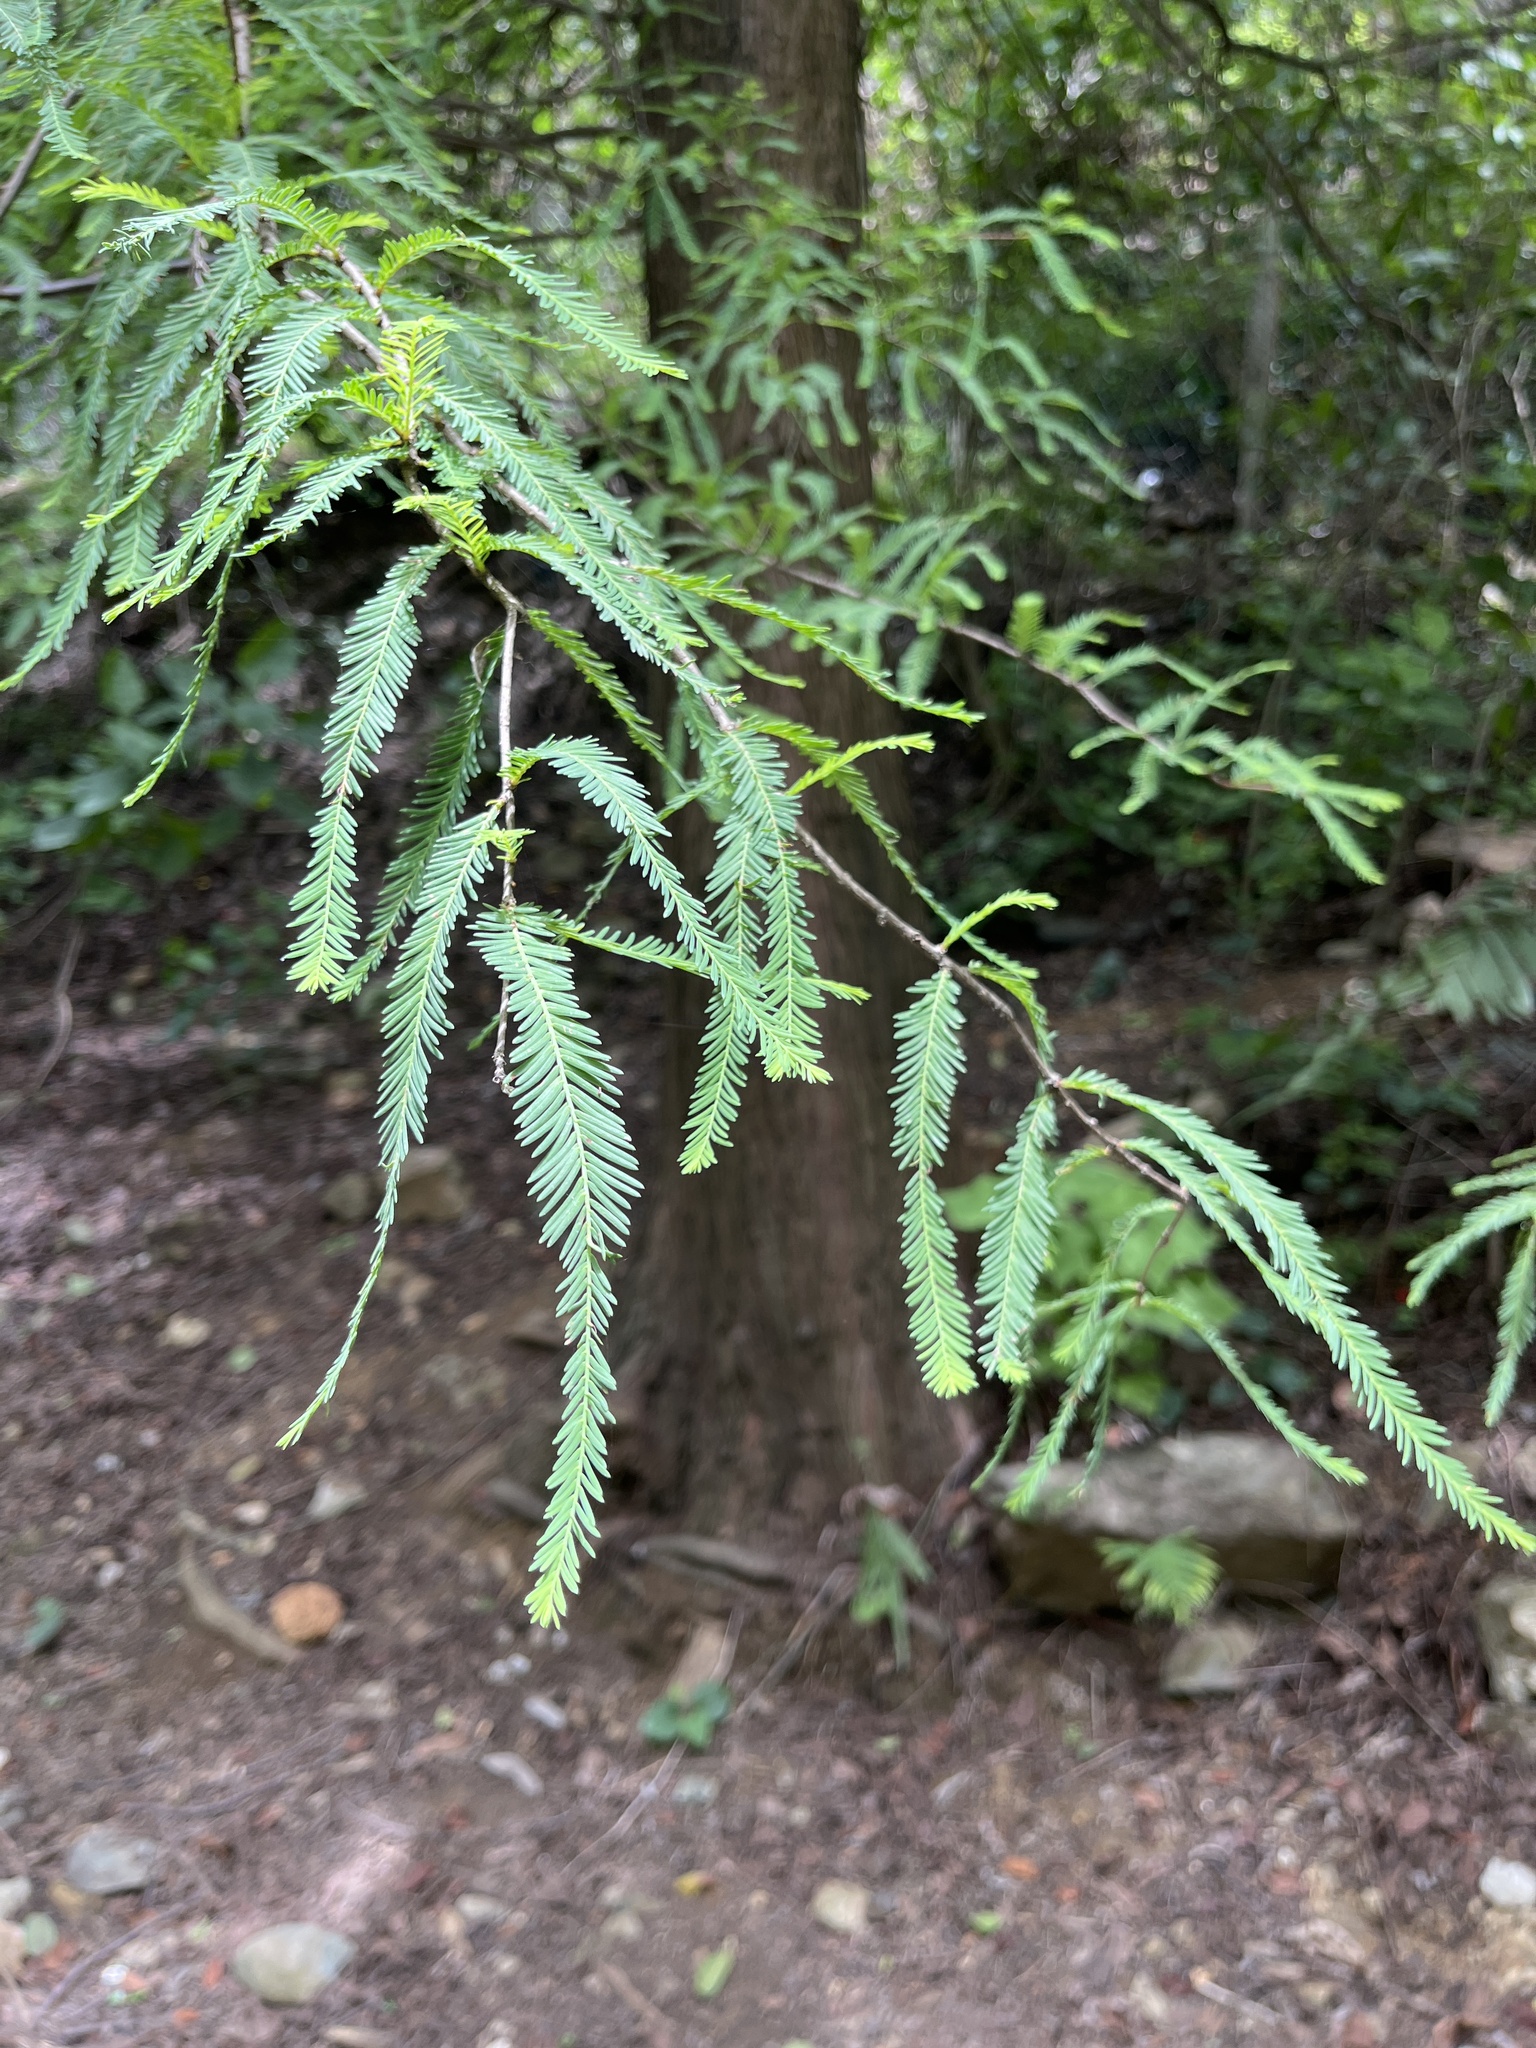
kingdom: Plantae
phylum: Tracheophyta
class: Pinopsida
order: Pinales
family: Cupressaceae
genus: Taxodium
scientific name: Taxodium mucronatum
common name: Montezume bald cypress
